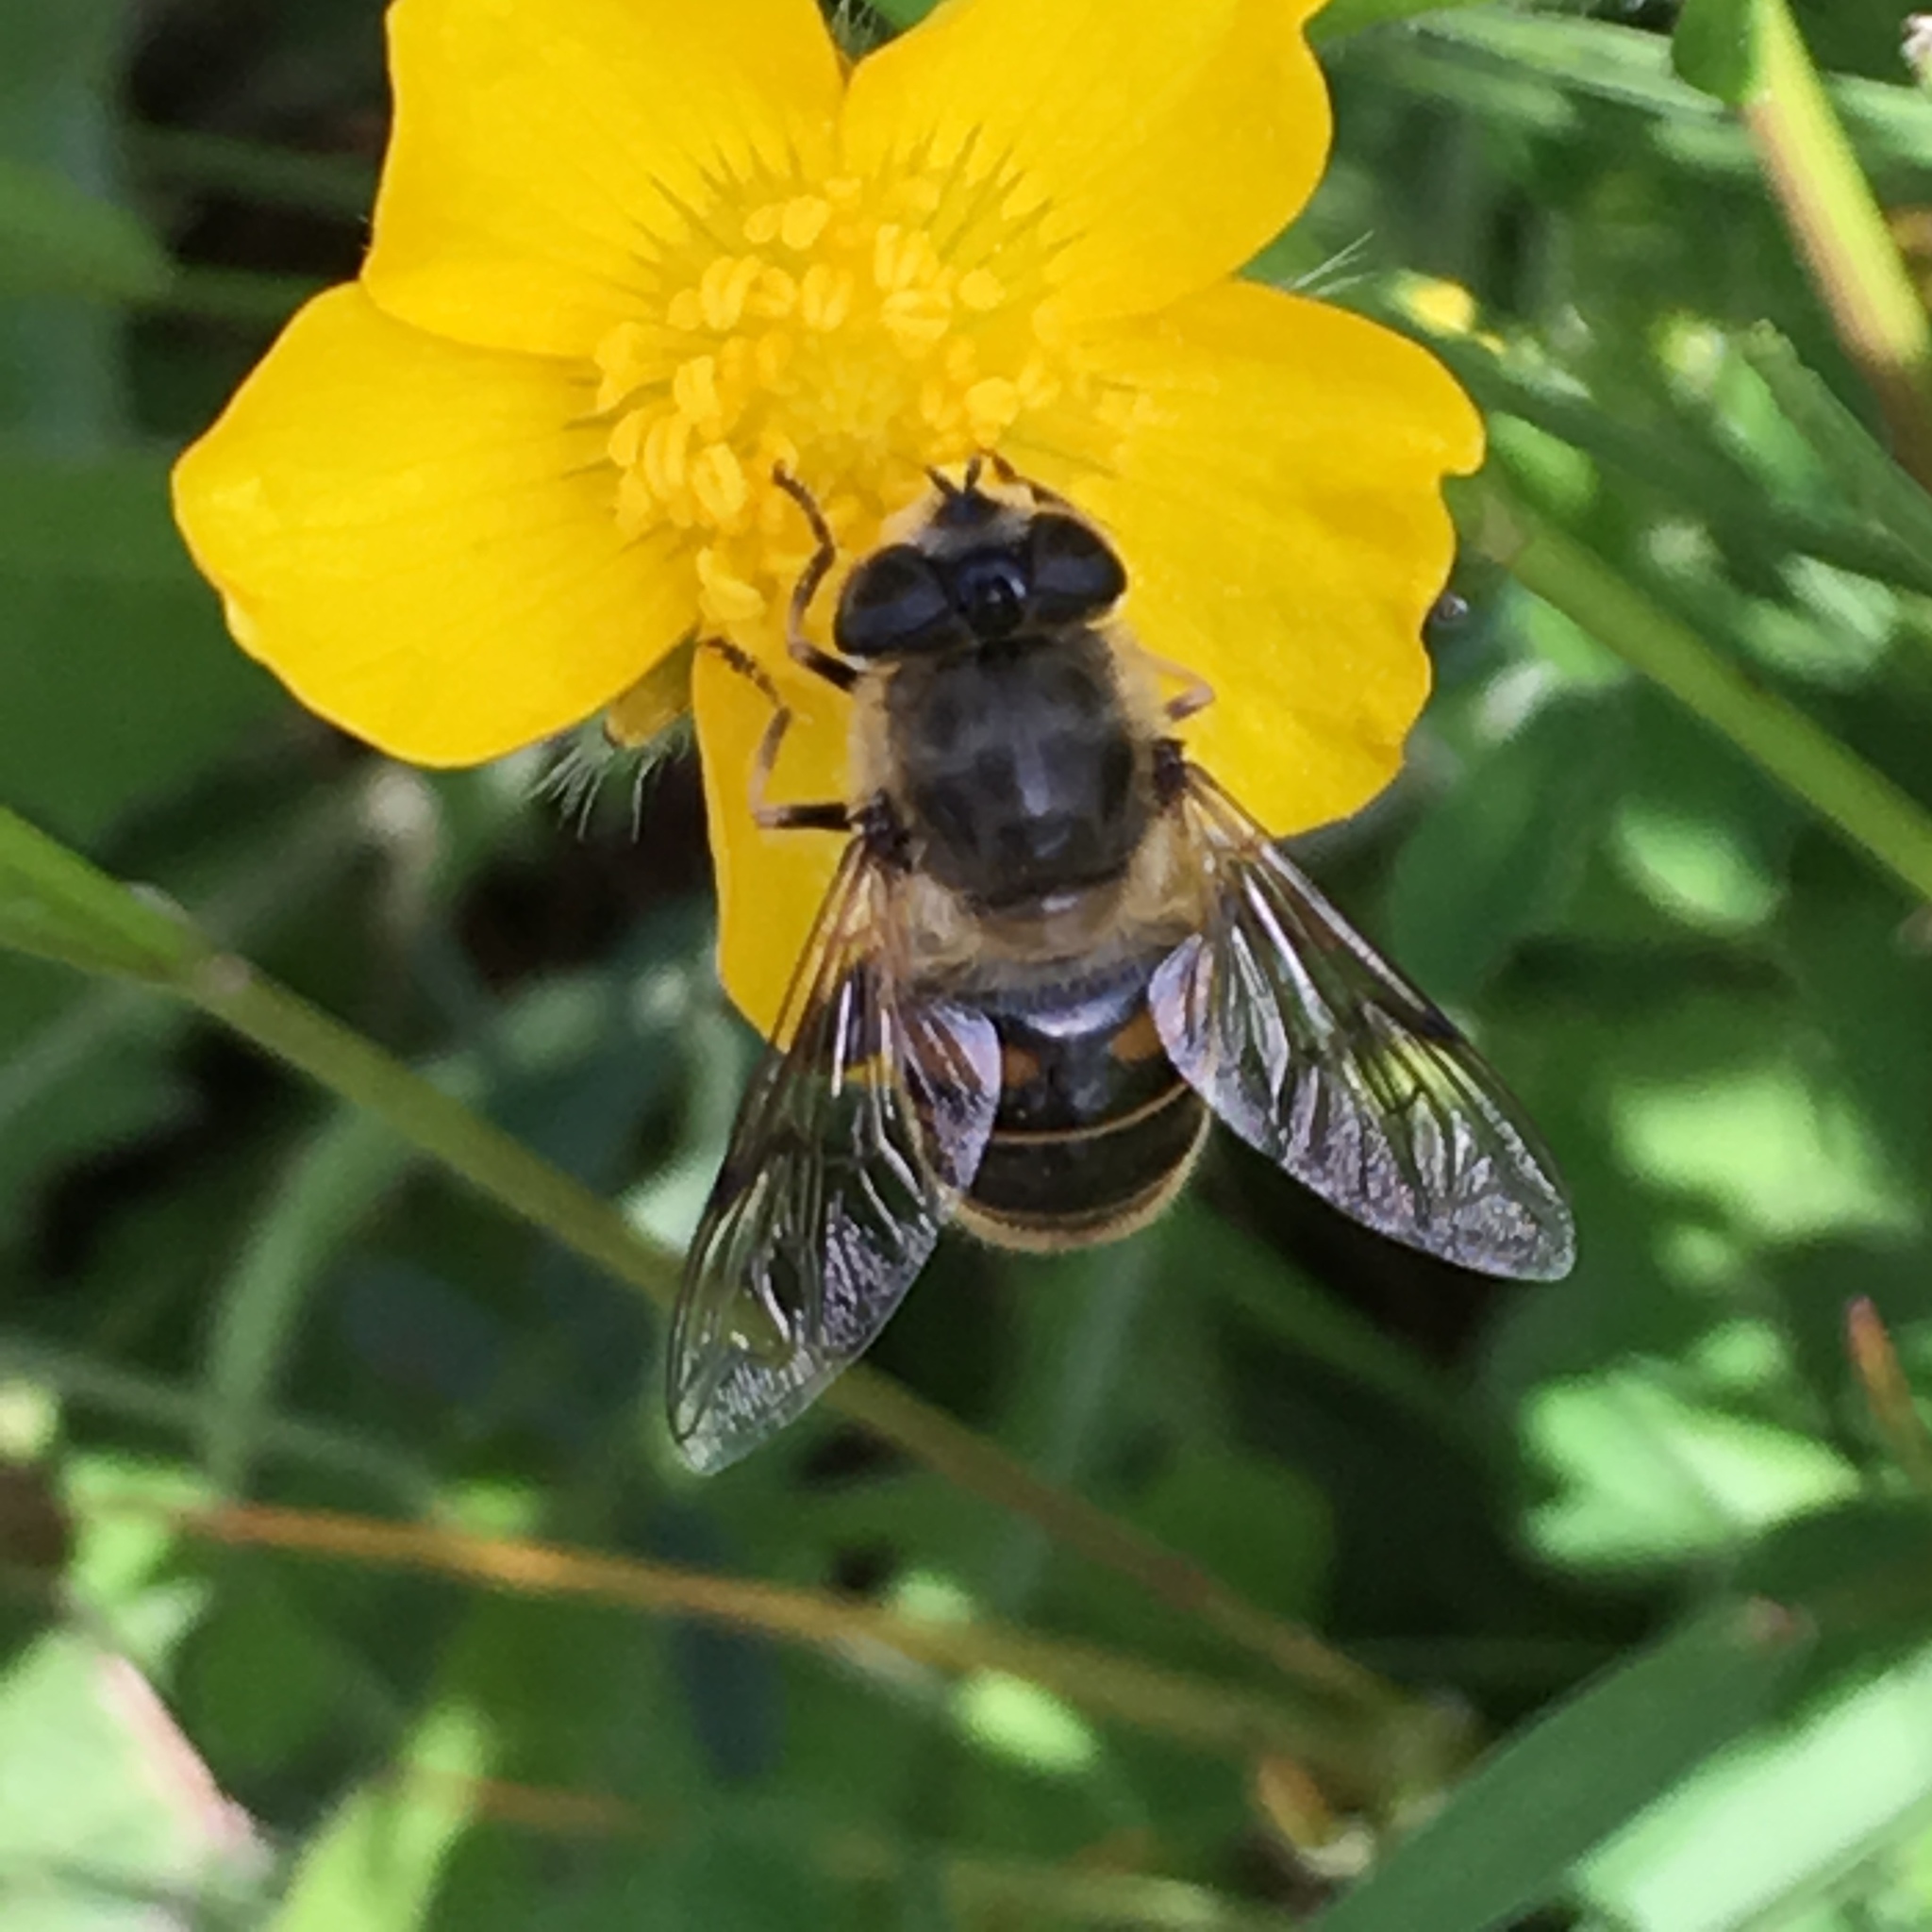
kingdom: Animalia
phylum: Arthropoda
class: Insecta
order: Diptera
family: Syrphidae
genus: Eristalis
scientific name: Eristalis tenax
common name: Drone fly
